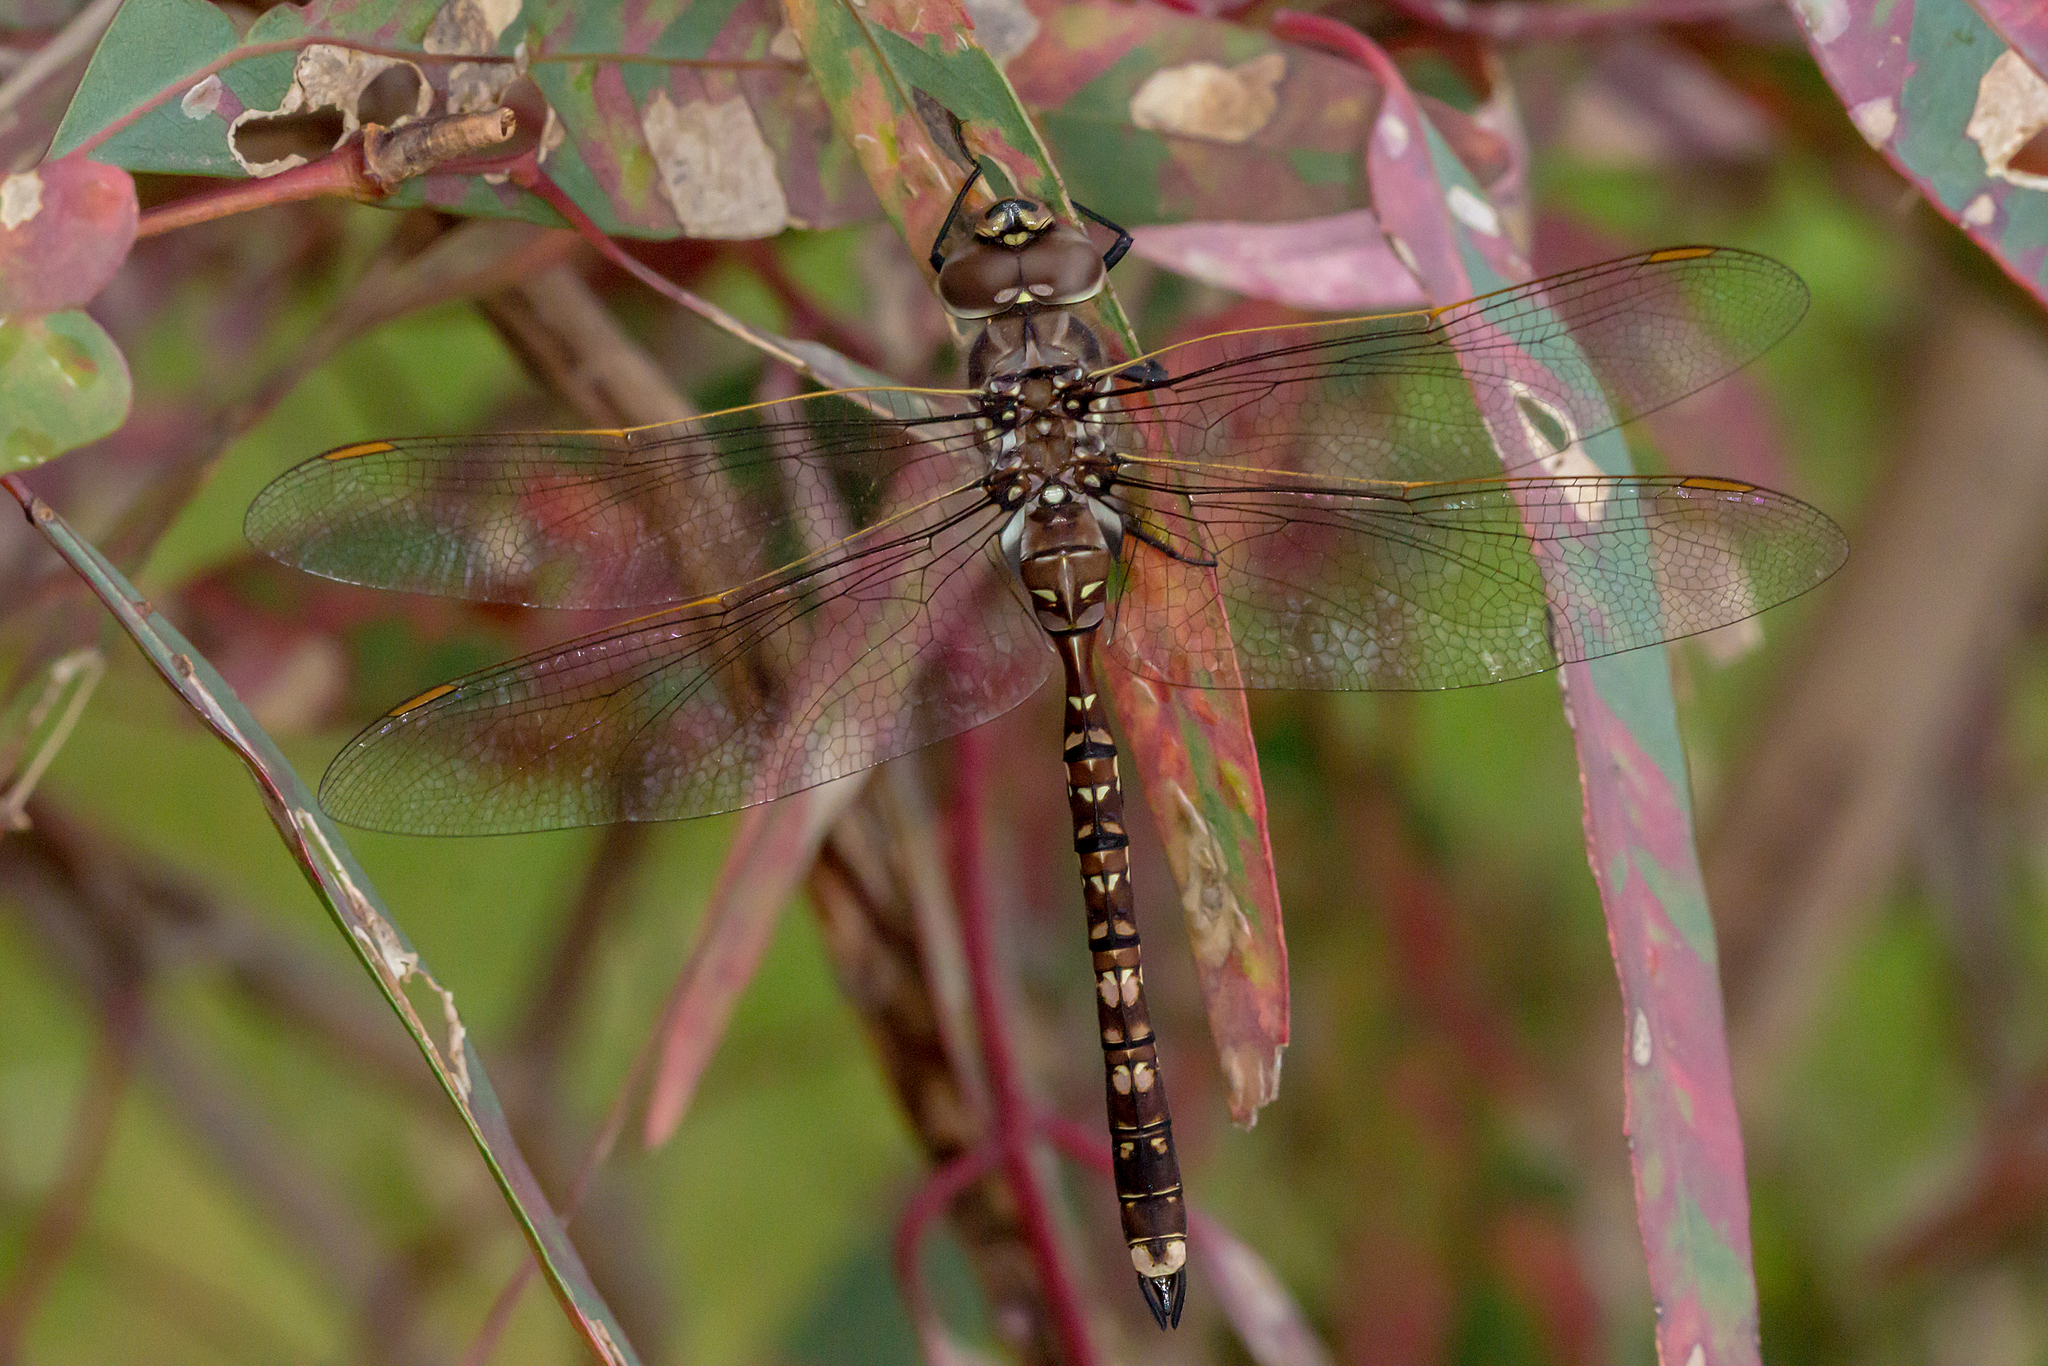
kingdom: Animalia
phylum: Arthropoda
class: Insecta
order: Odonata
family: Aeshnidae
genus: Aeshna
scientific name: Aeshna brevistyla
